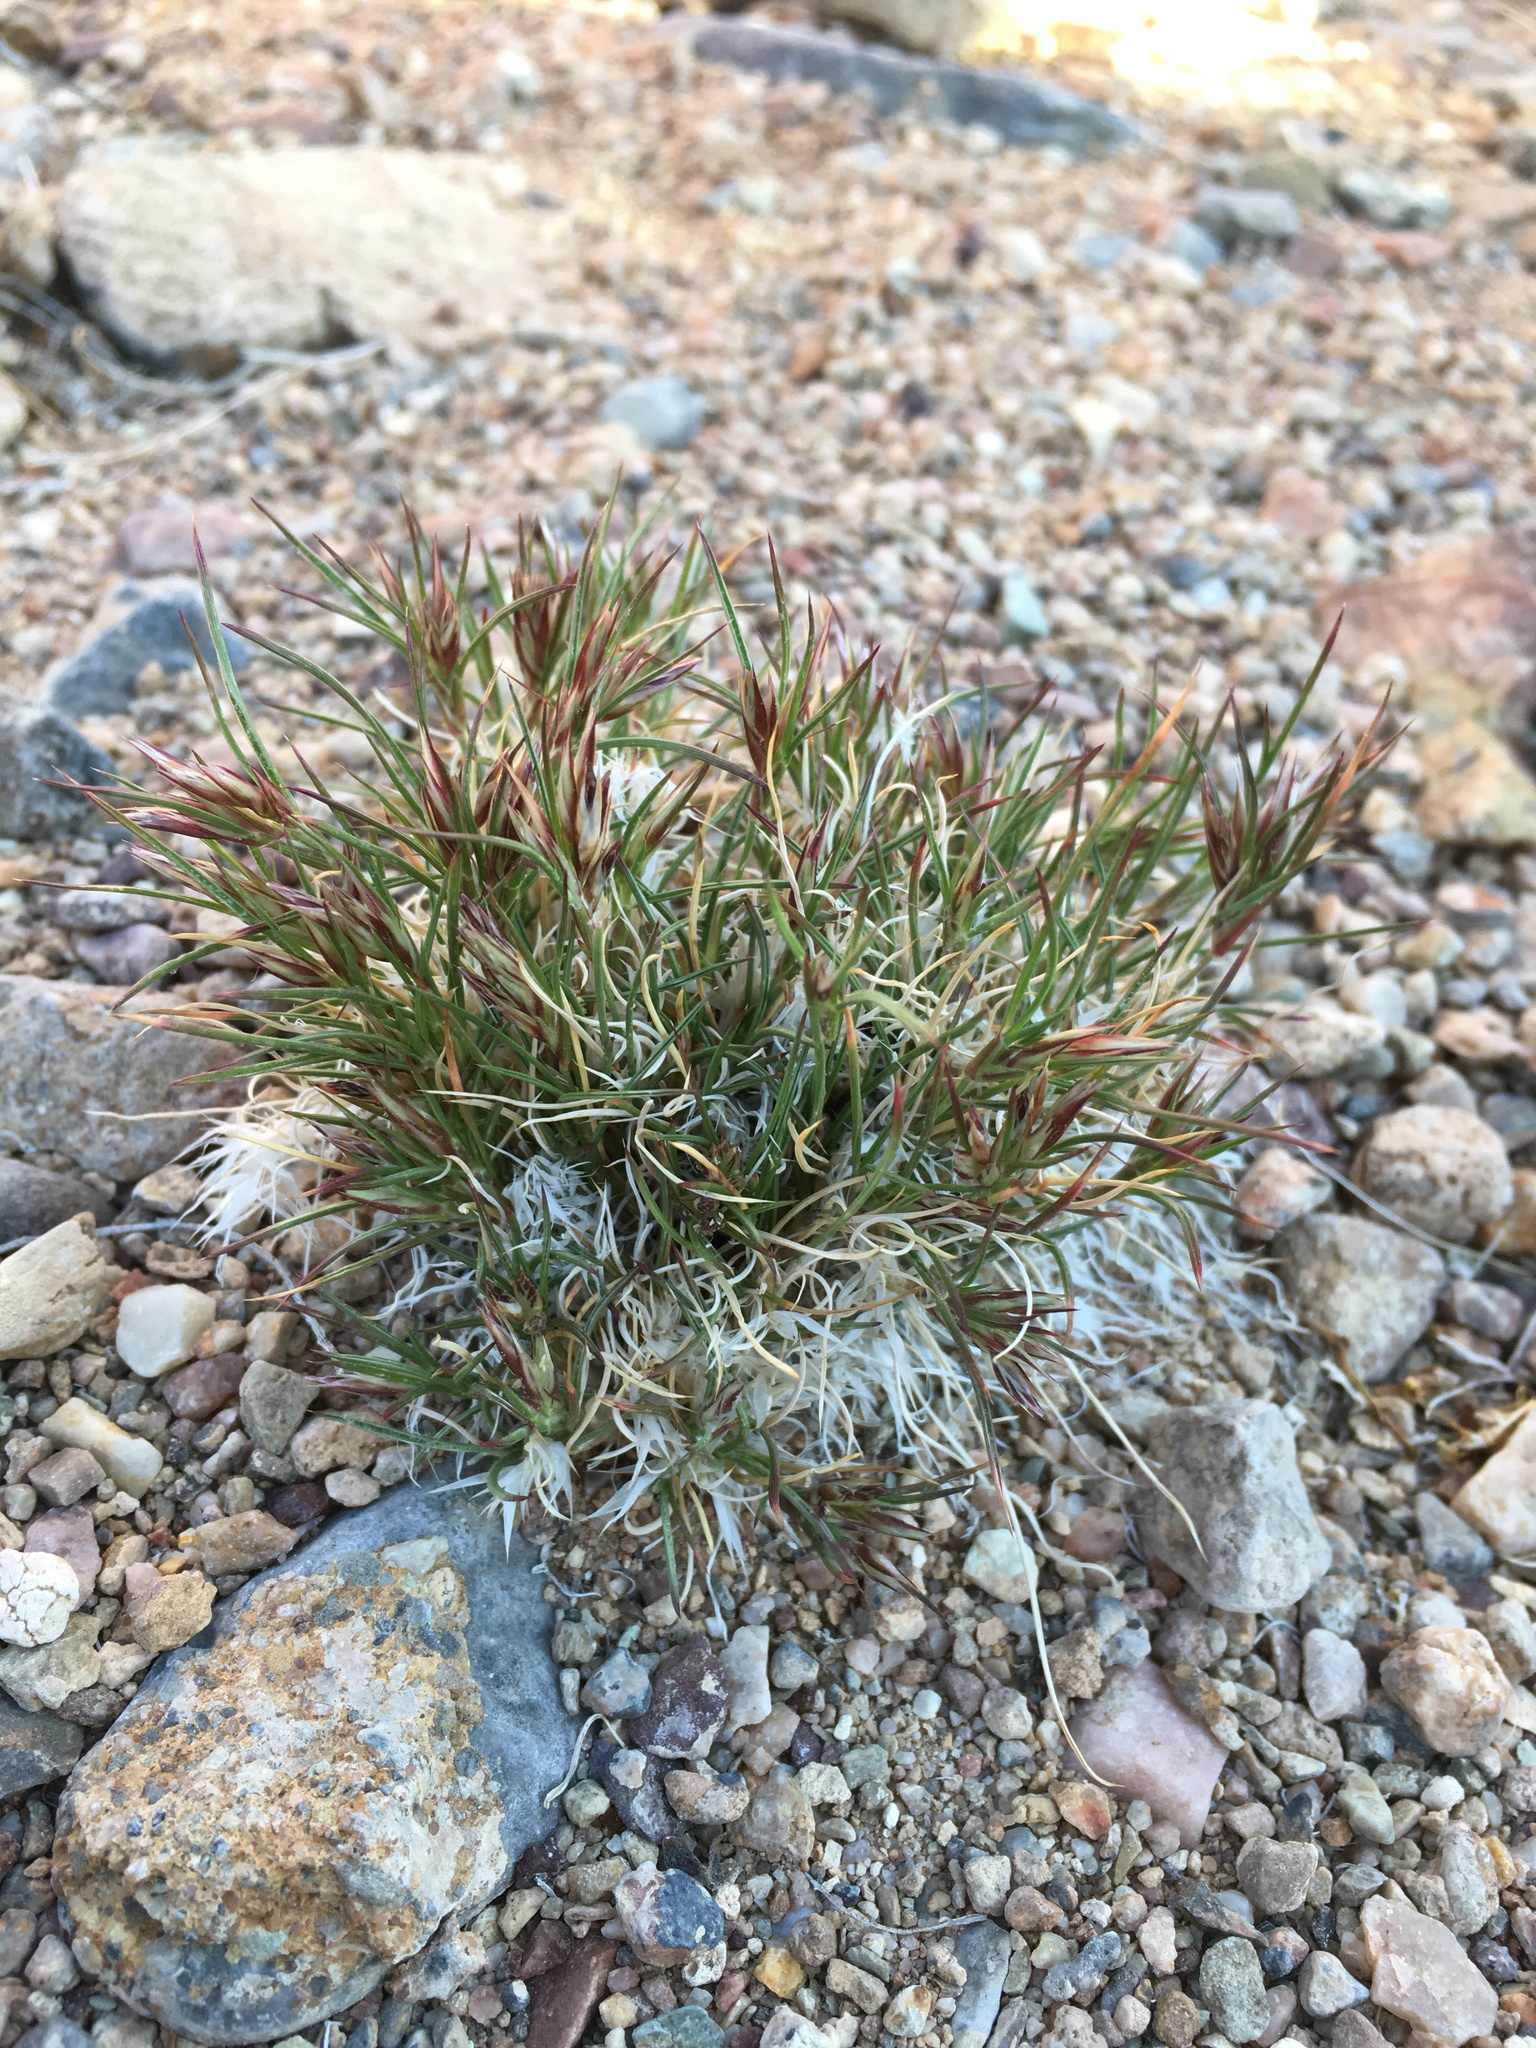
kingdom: Plantae
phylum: Tracheophyta
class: Liliopsida
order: Poales
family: Poaceae
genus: Dasyochloa
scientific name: Dasyochloa pulchella
